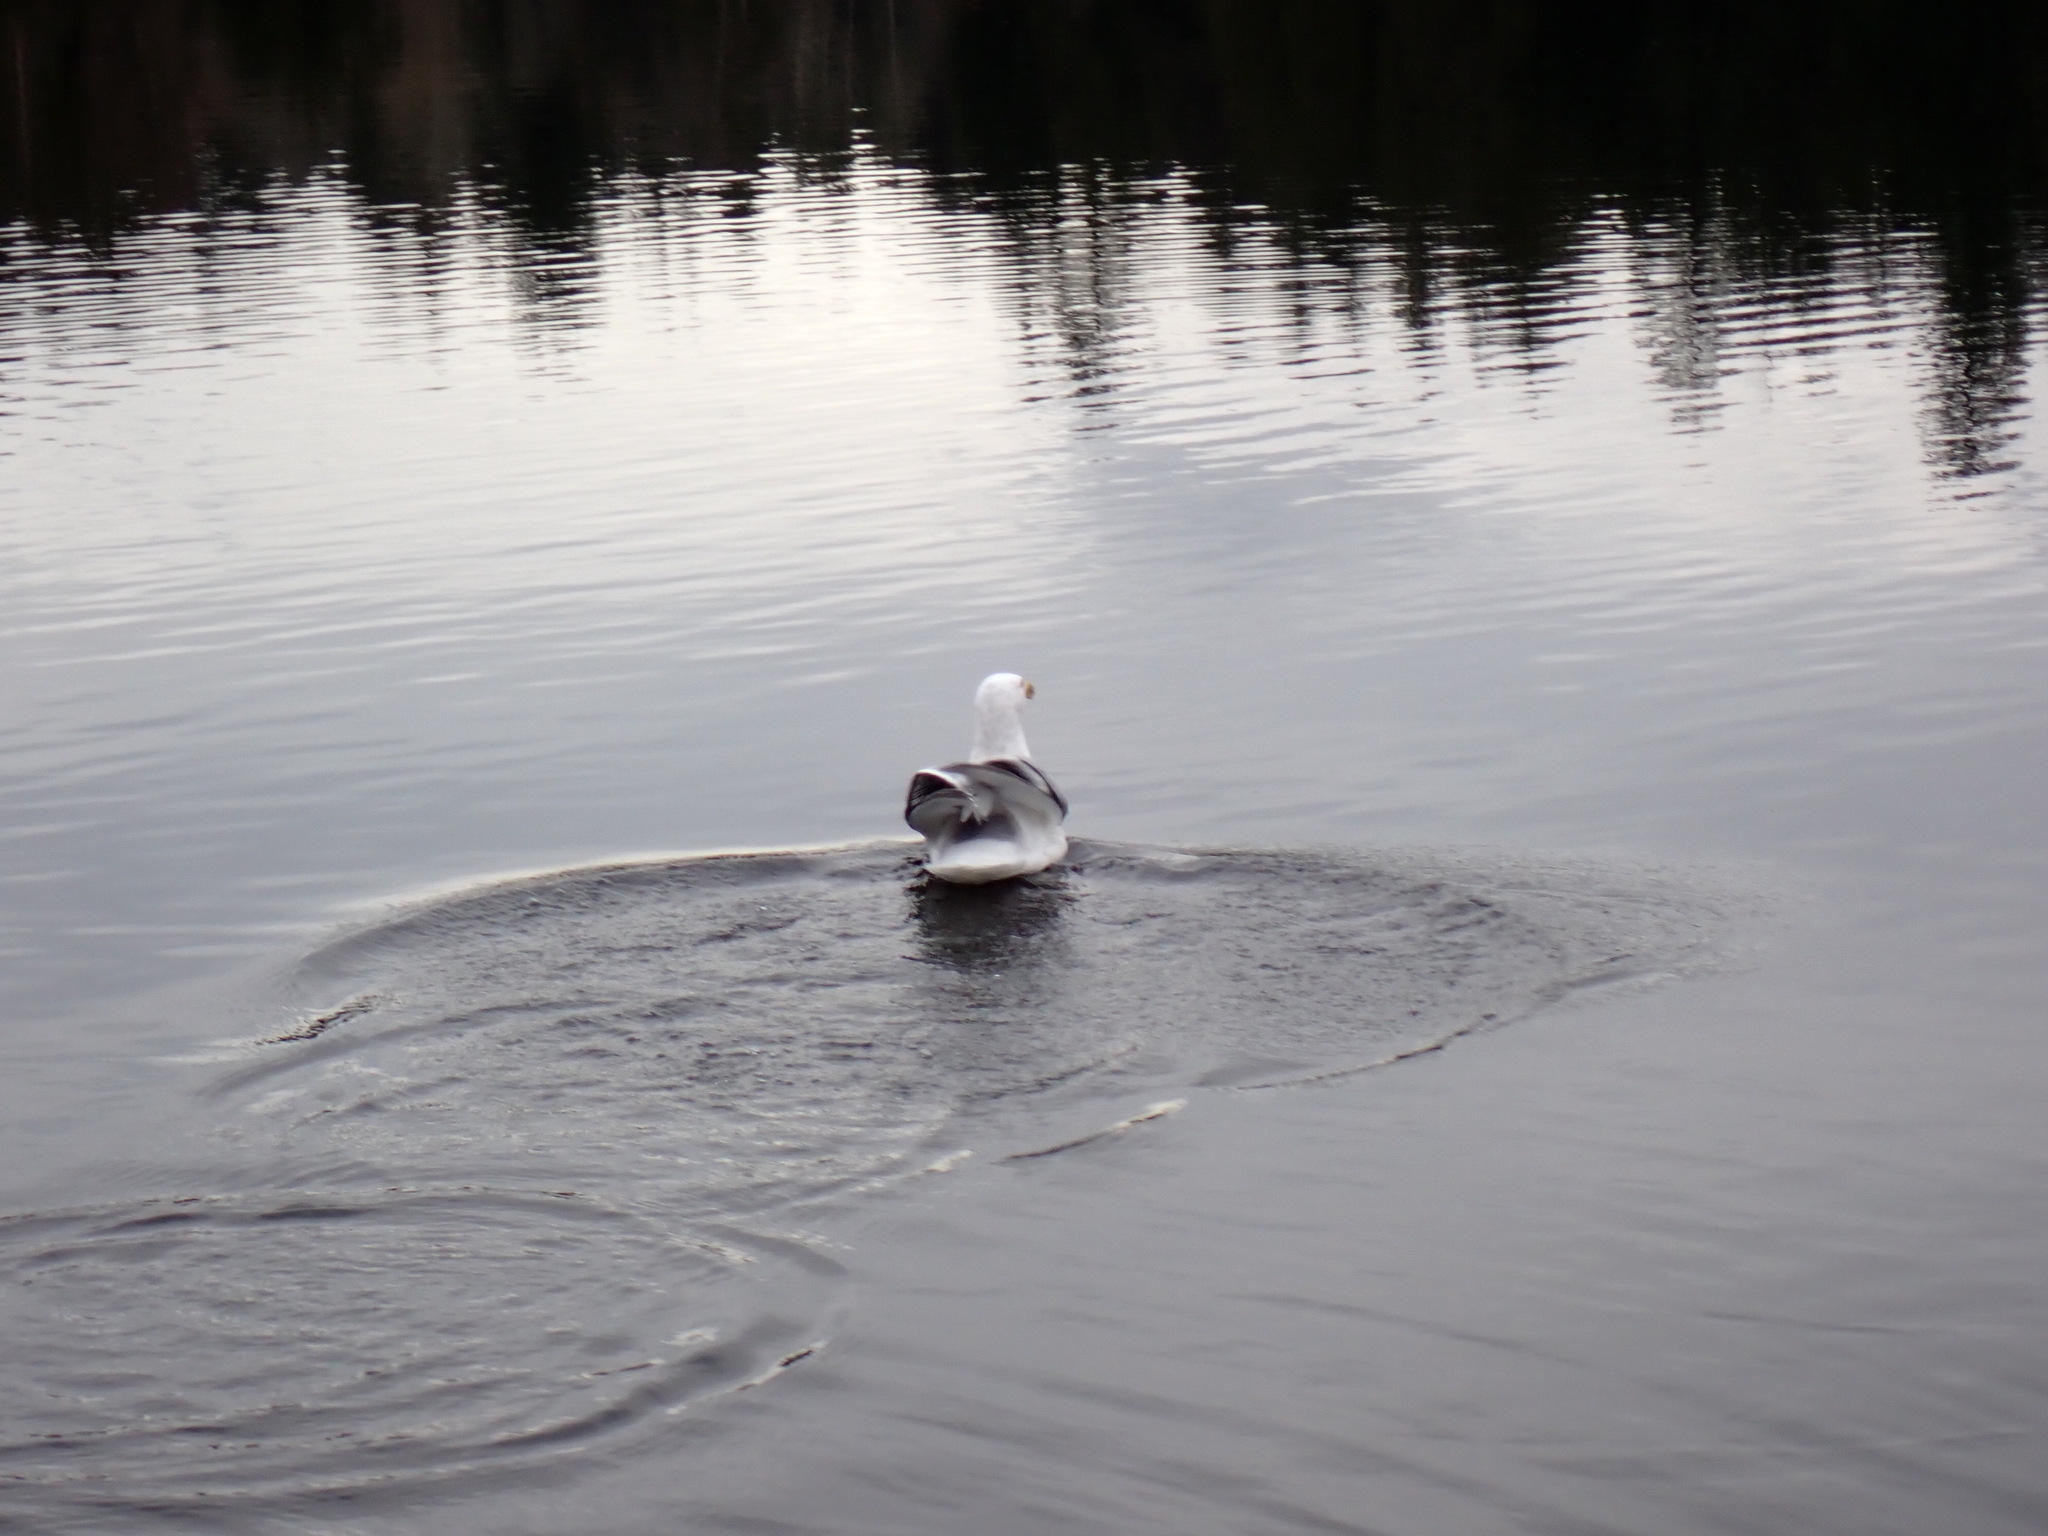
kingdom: Animalia
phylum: Chordata
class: Aves
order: Charadriiformes
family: Laridae
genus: Larus
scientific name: Larus glaucescens
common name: Glaucous-winged gull
